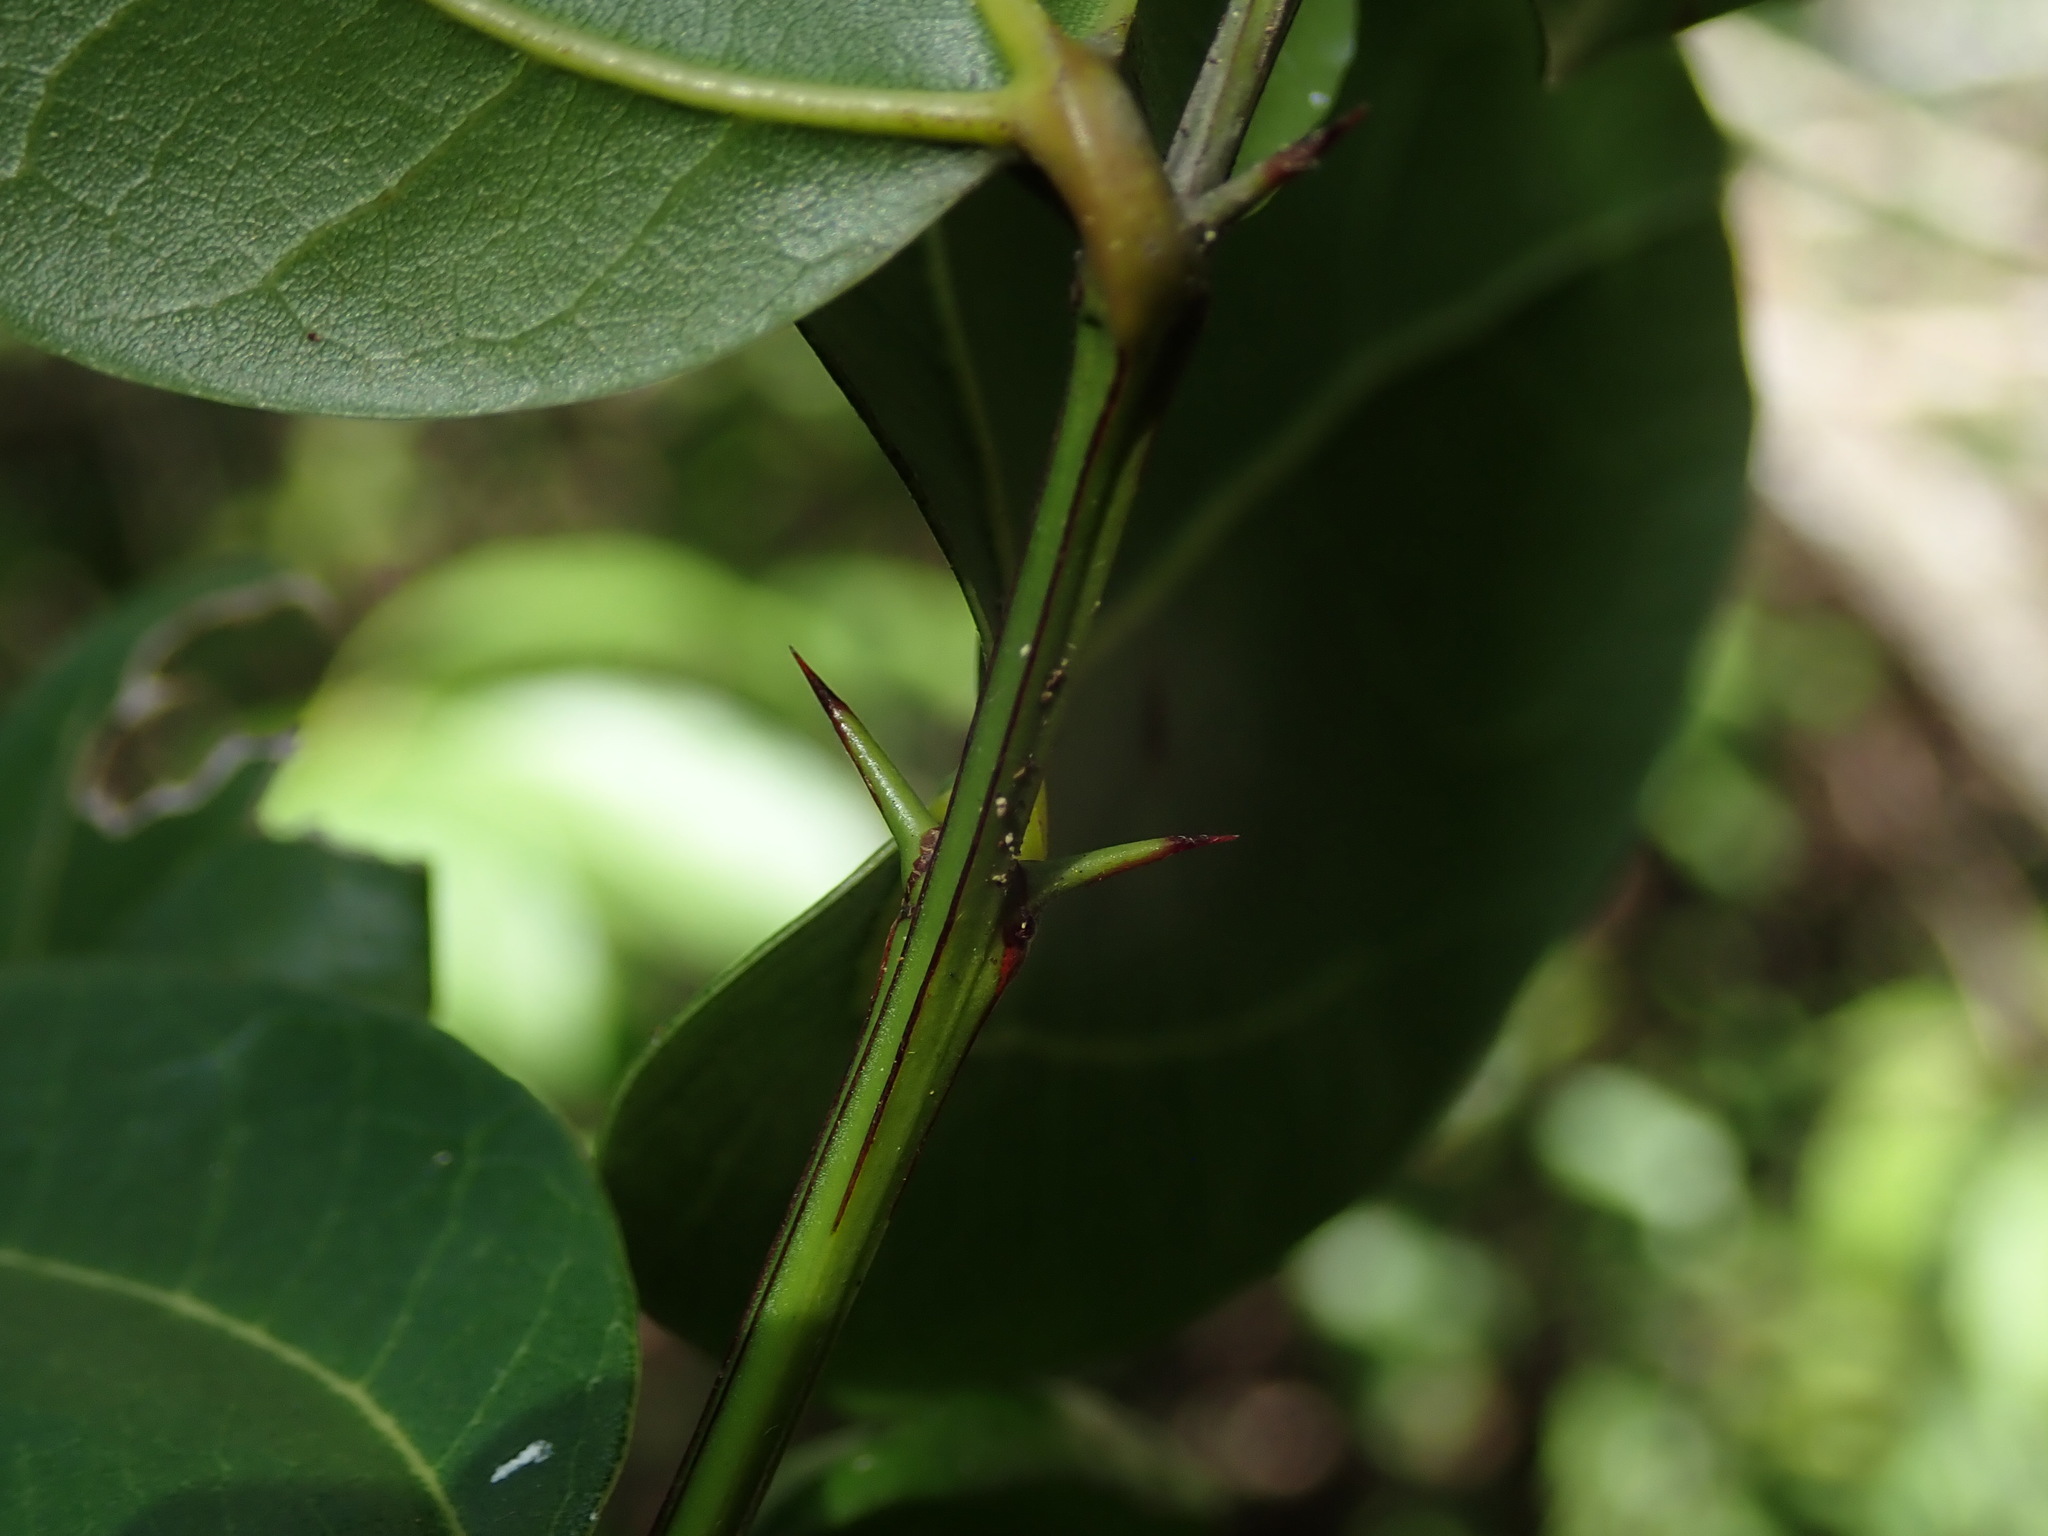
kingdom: Plantae
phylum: Tracheophyta
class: Magnoliopsida
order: Rosales
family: Rhamnaceae
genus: Sarcomphalus
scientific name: Sarcomphalus domingensis
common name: Thorn
